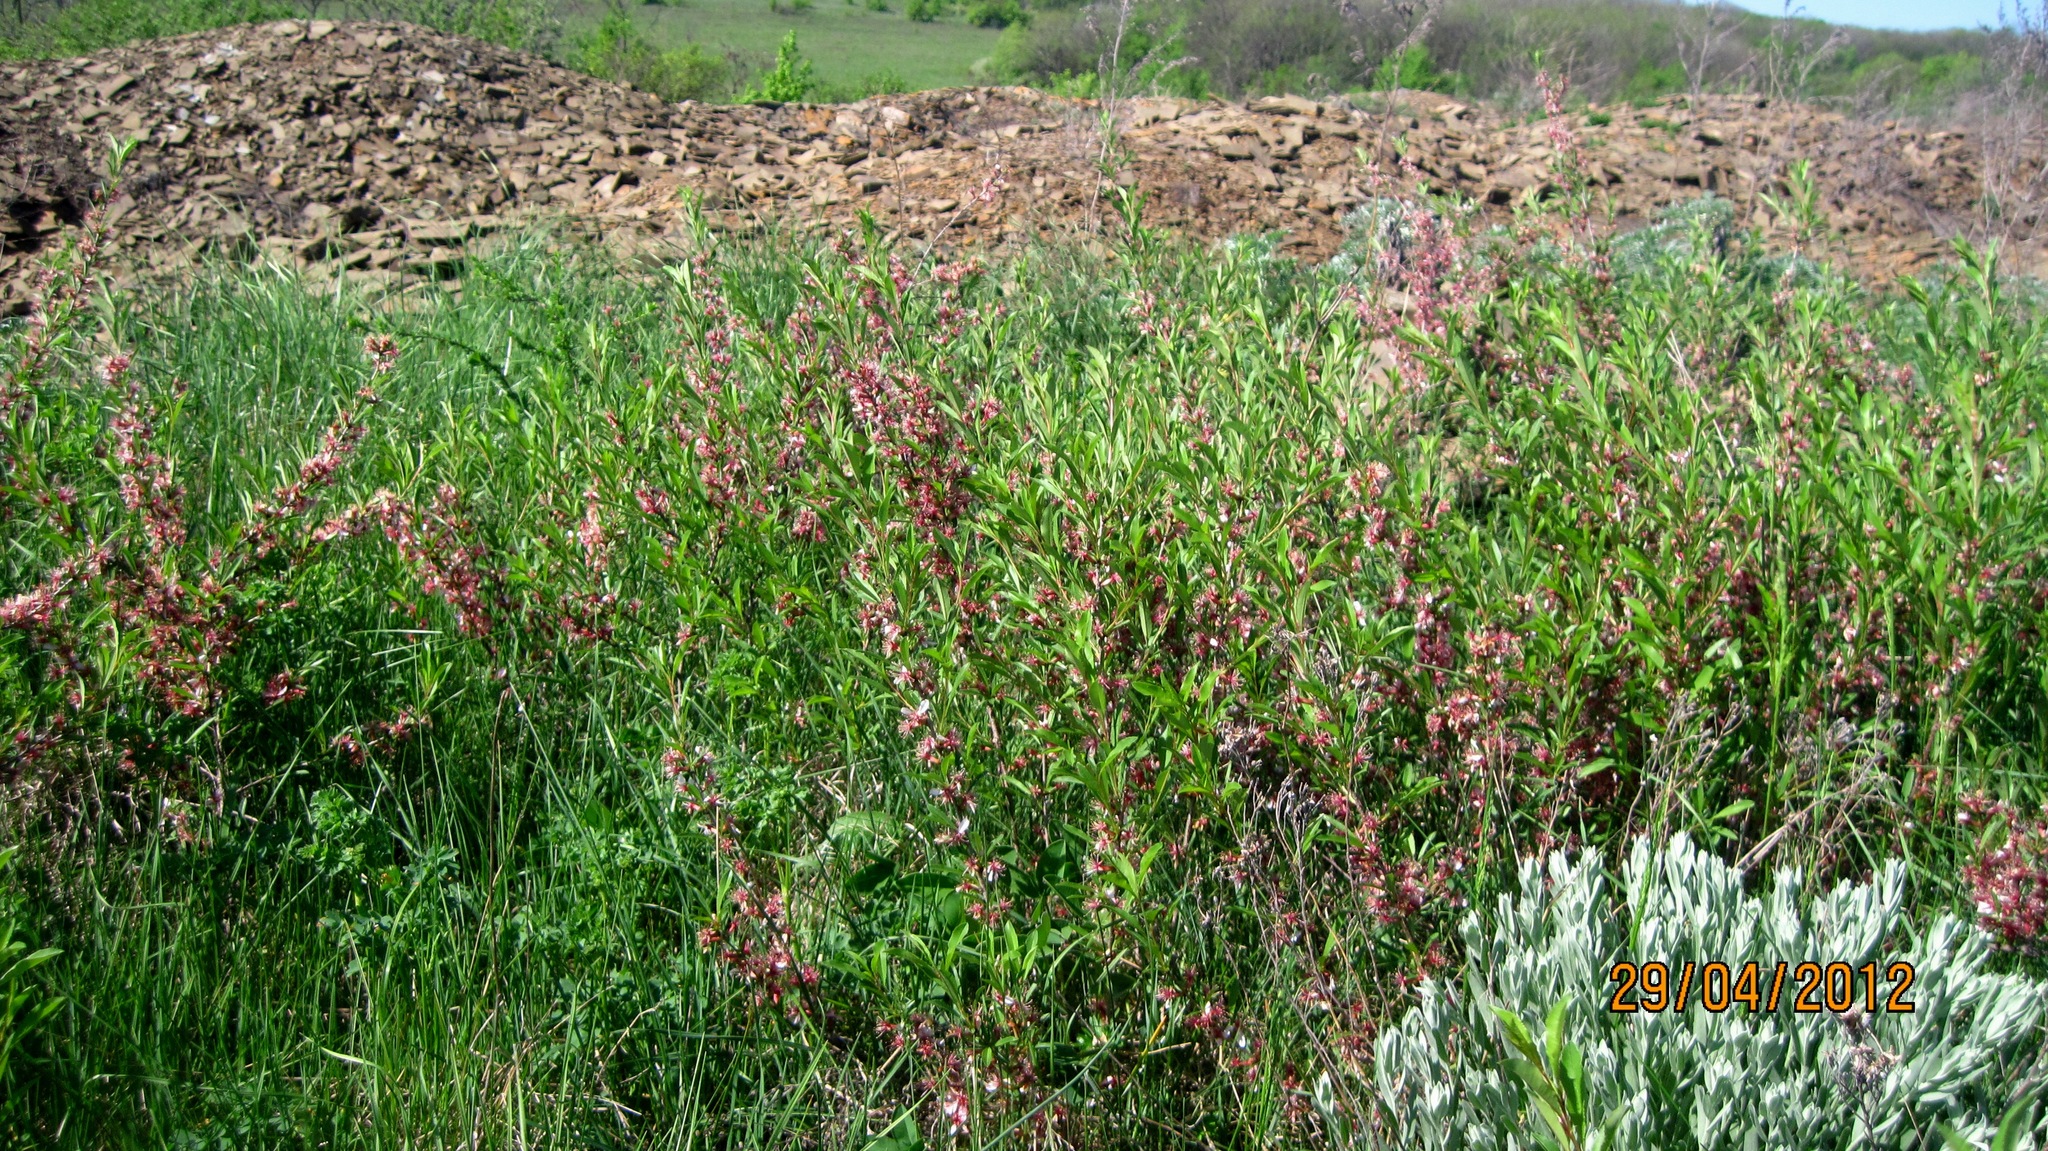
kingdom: Plantae
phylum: Tracheophyta
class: Magnoliopsida
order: Rosales
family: Rosaceae
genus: Prunus
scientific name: Prunus tenella
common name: Dwarf russian almond
